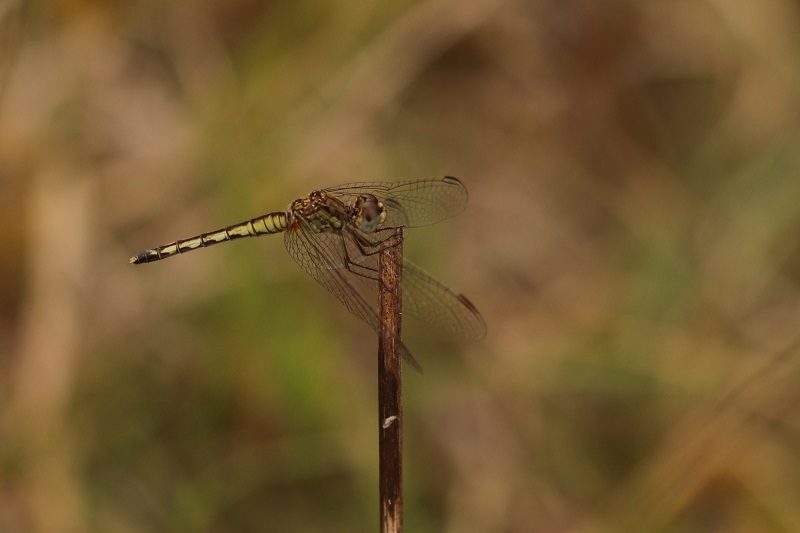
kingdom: Animalia
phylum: Arthropoda
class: Insecta
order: Odonata
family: Libellulidae
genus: Diplacodes
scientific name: Diplacodes lefebvrii
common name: Black percher
